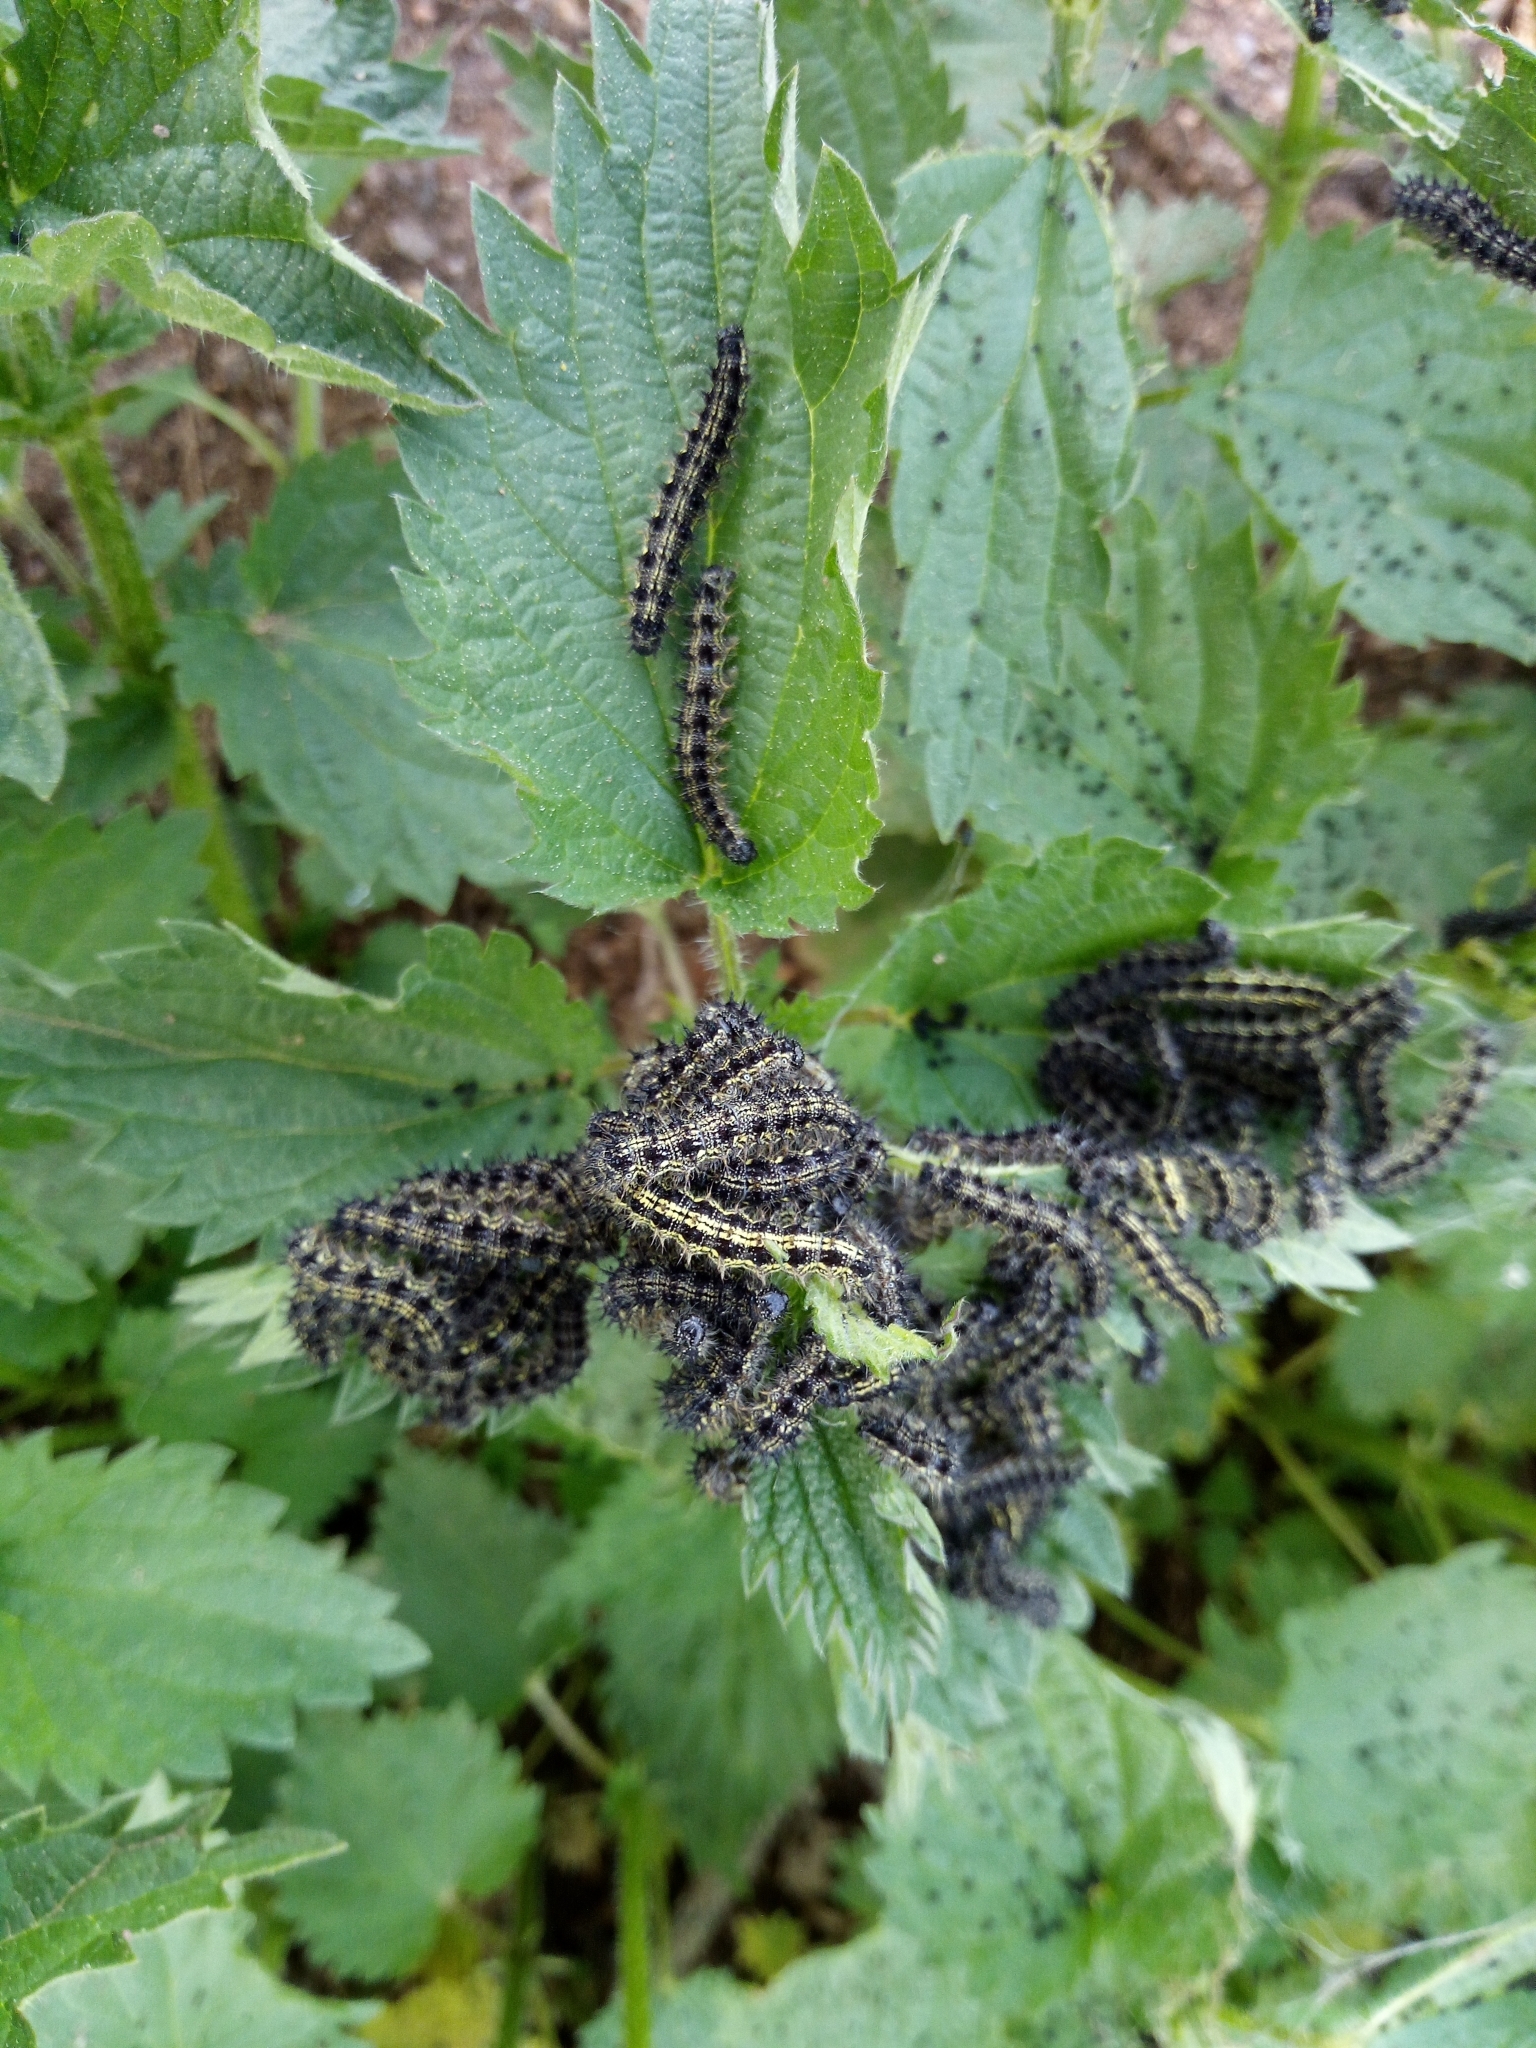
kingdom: Animalia
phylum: Arthropoda
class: Insecta
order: Lepidoptera
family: Nymphalidae
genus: Aglais
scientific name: Aglais urticae
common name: Small tortoiseshell
